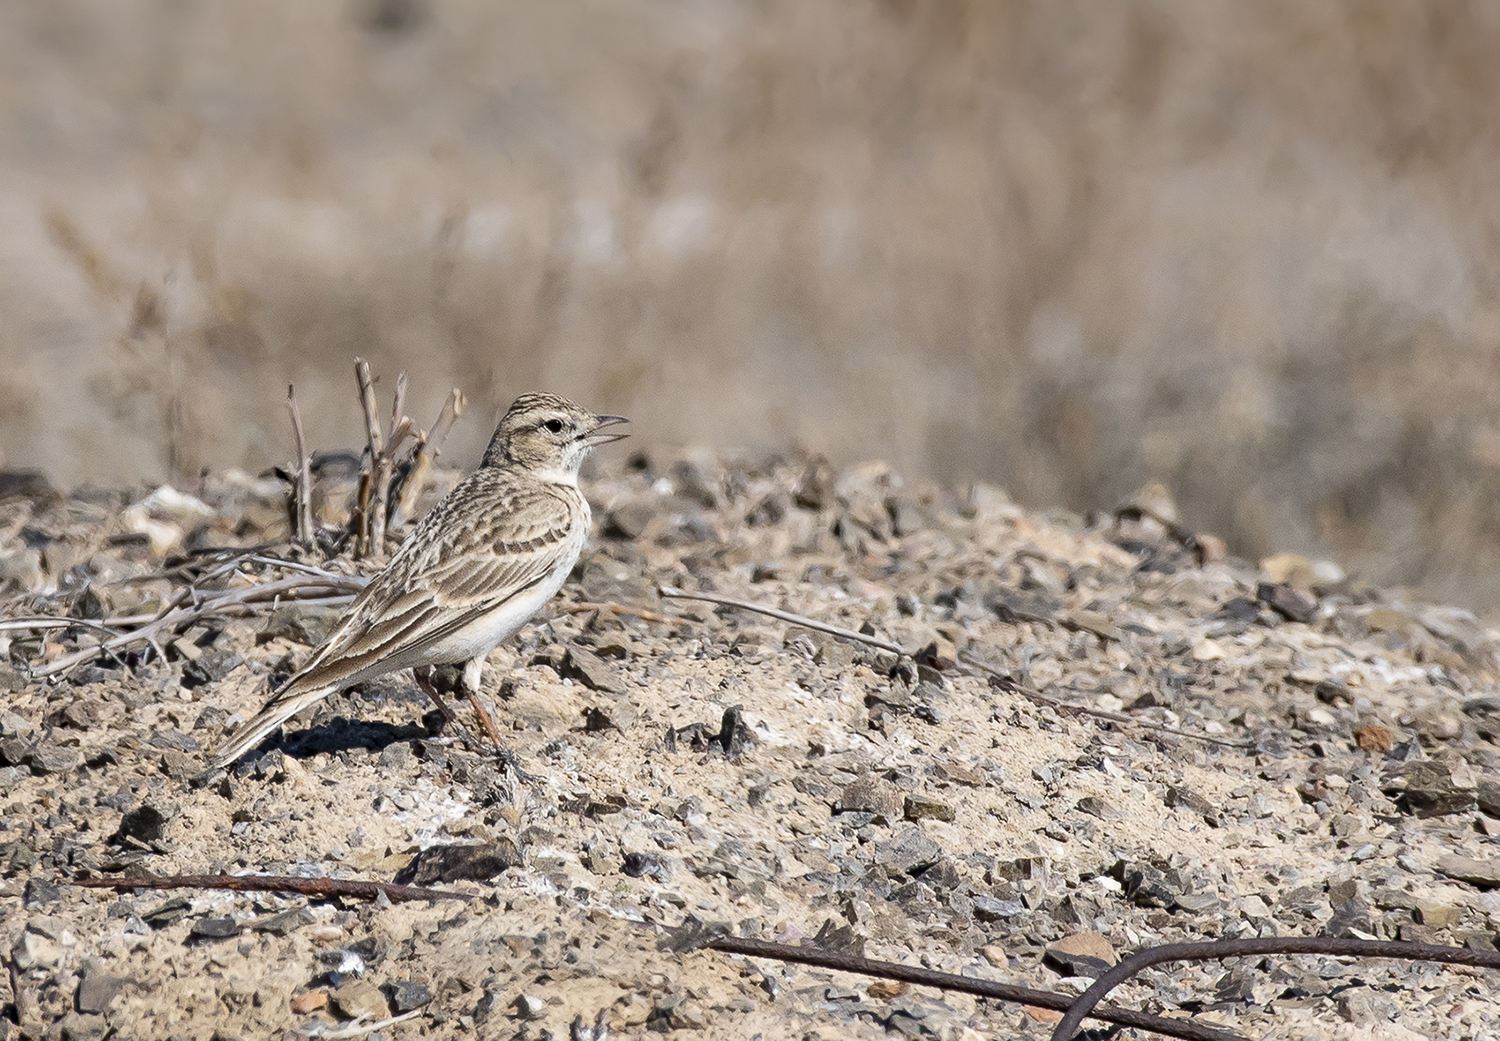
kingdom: Animalia
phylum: Chordata
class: Aves
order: Passeriformes
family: Alaudidae
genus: Calandrella
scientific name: Calandrella brachydactyla
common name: Greater short-toed lark
